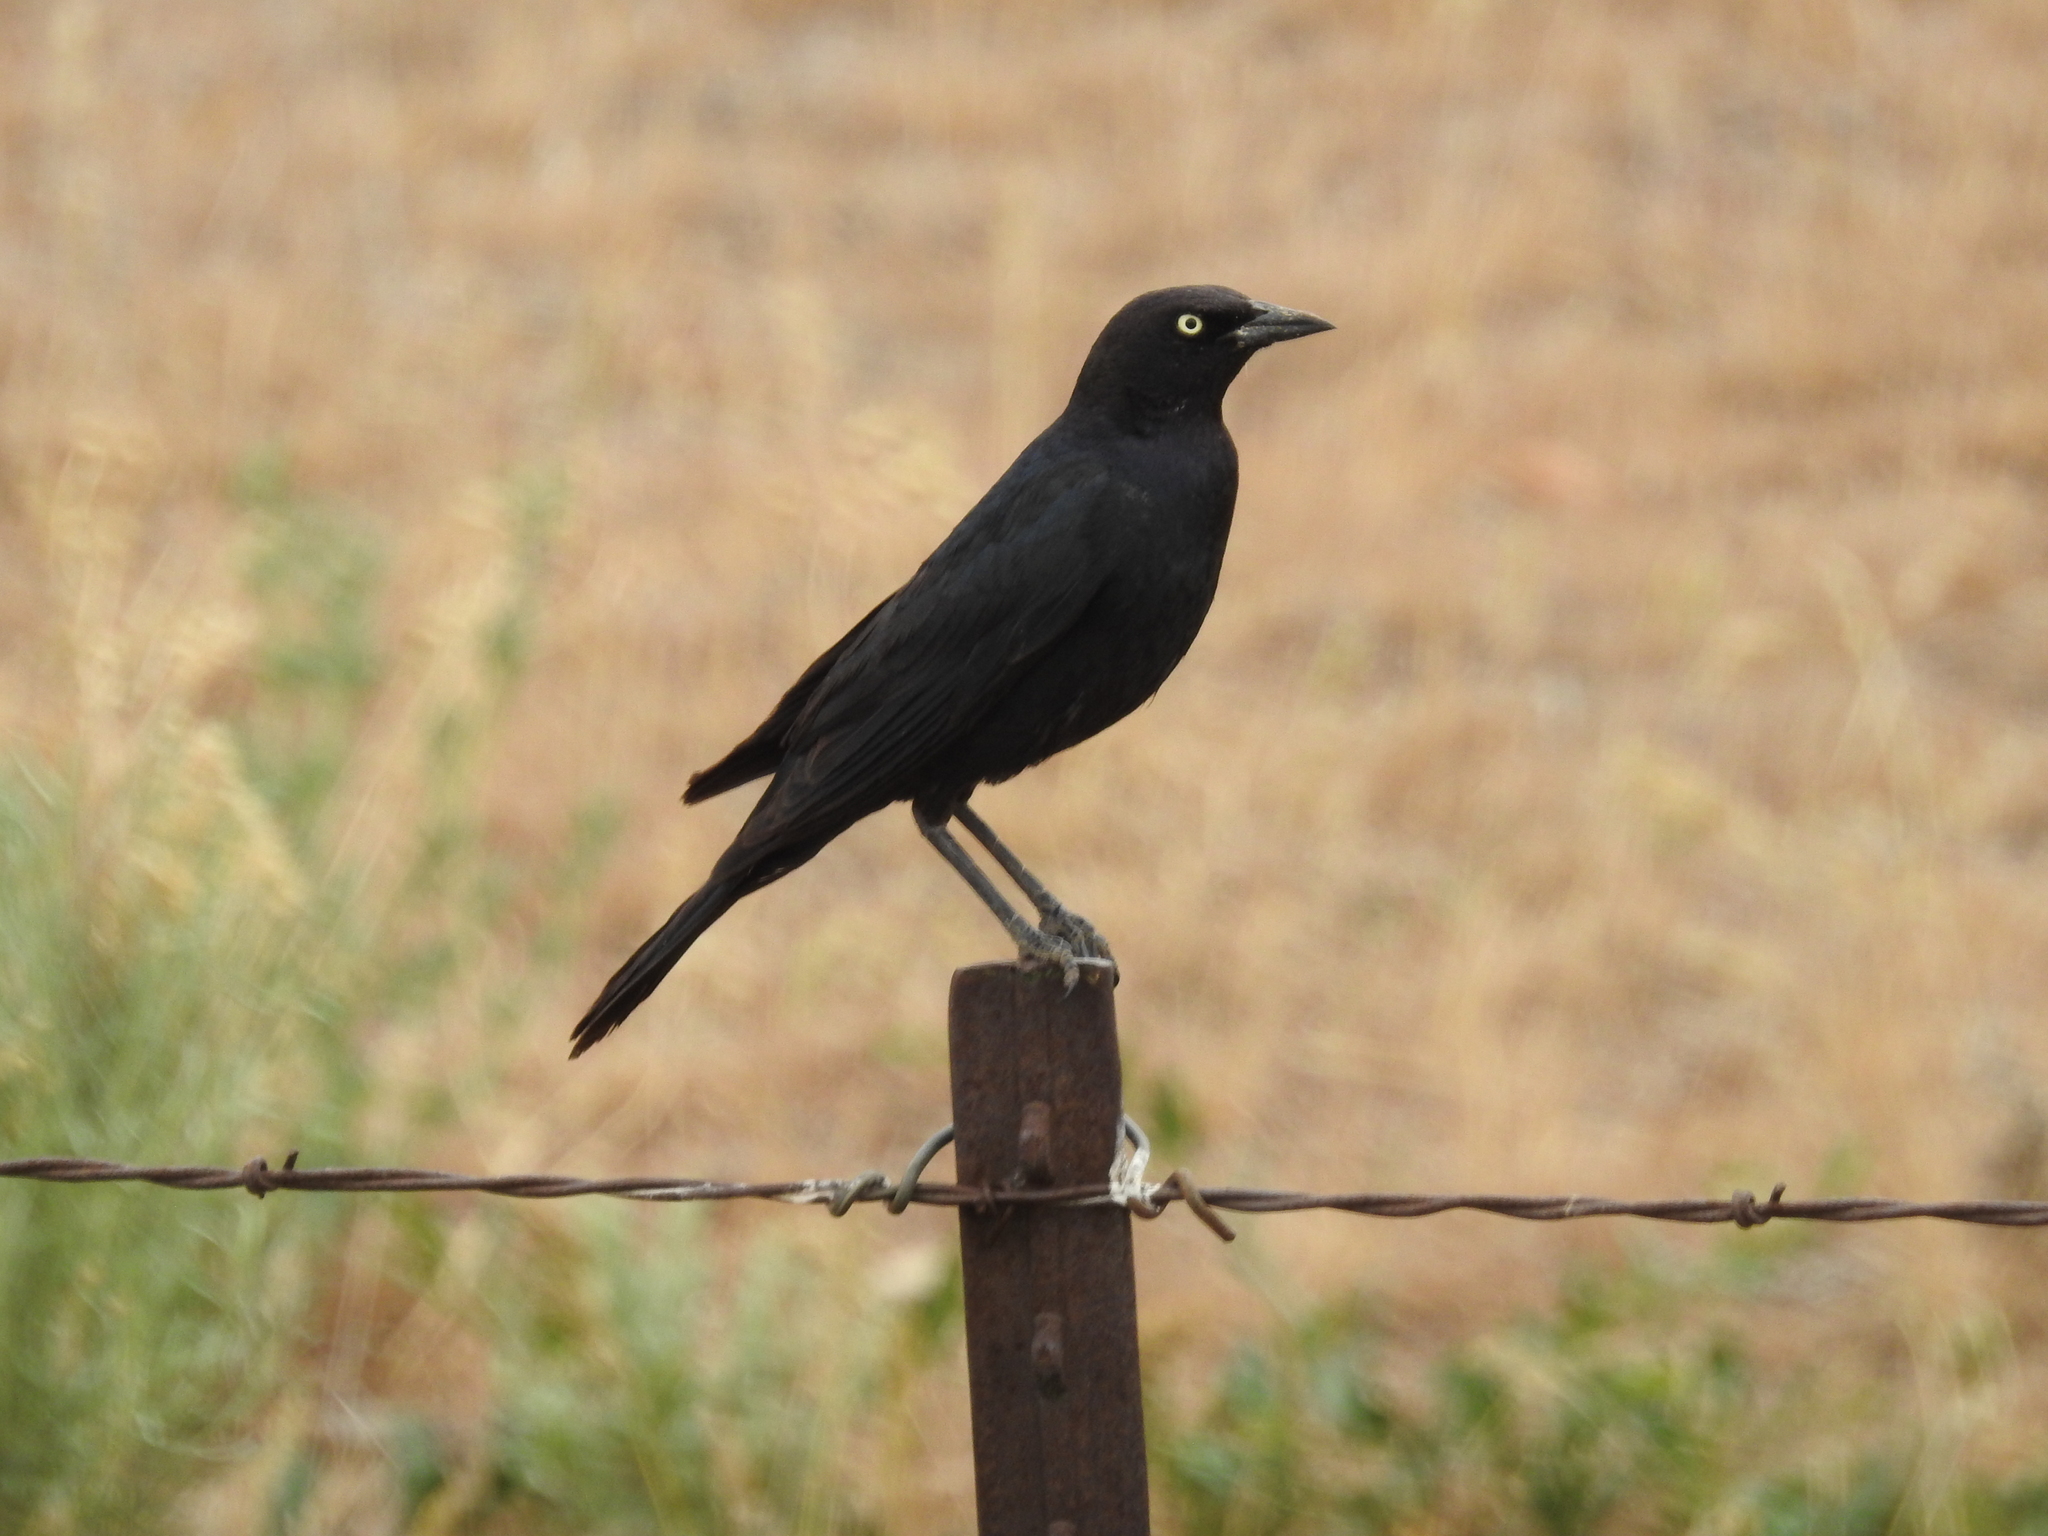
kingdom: Animalia
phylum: Chordata
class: Aves
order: Passeriformes
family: Icteridae
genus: Euphagus
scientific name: Euphagus cyanocephalus
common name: Brewer's blackbird
